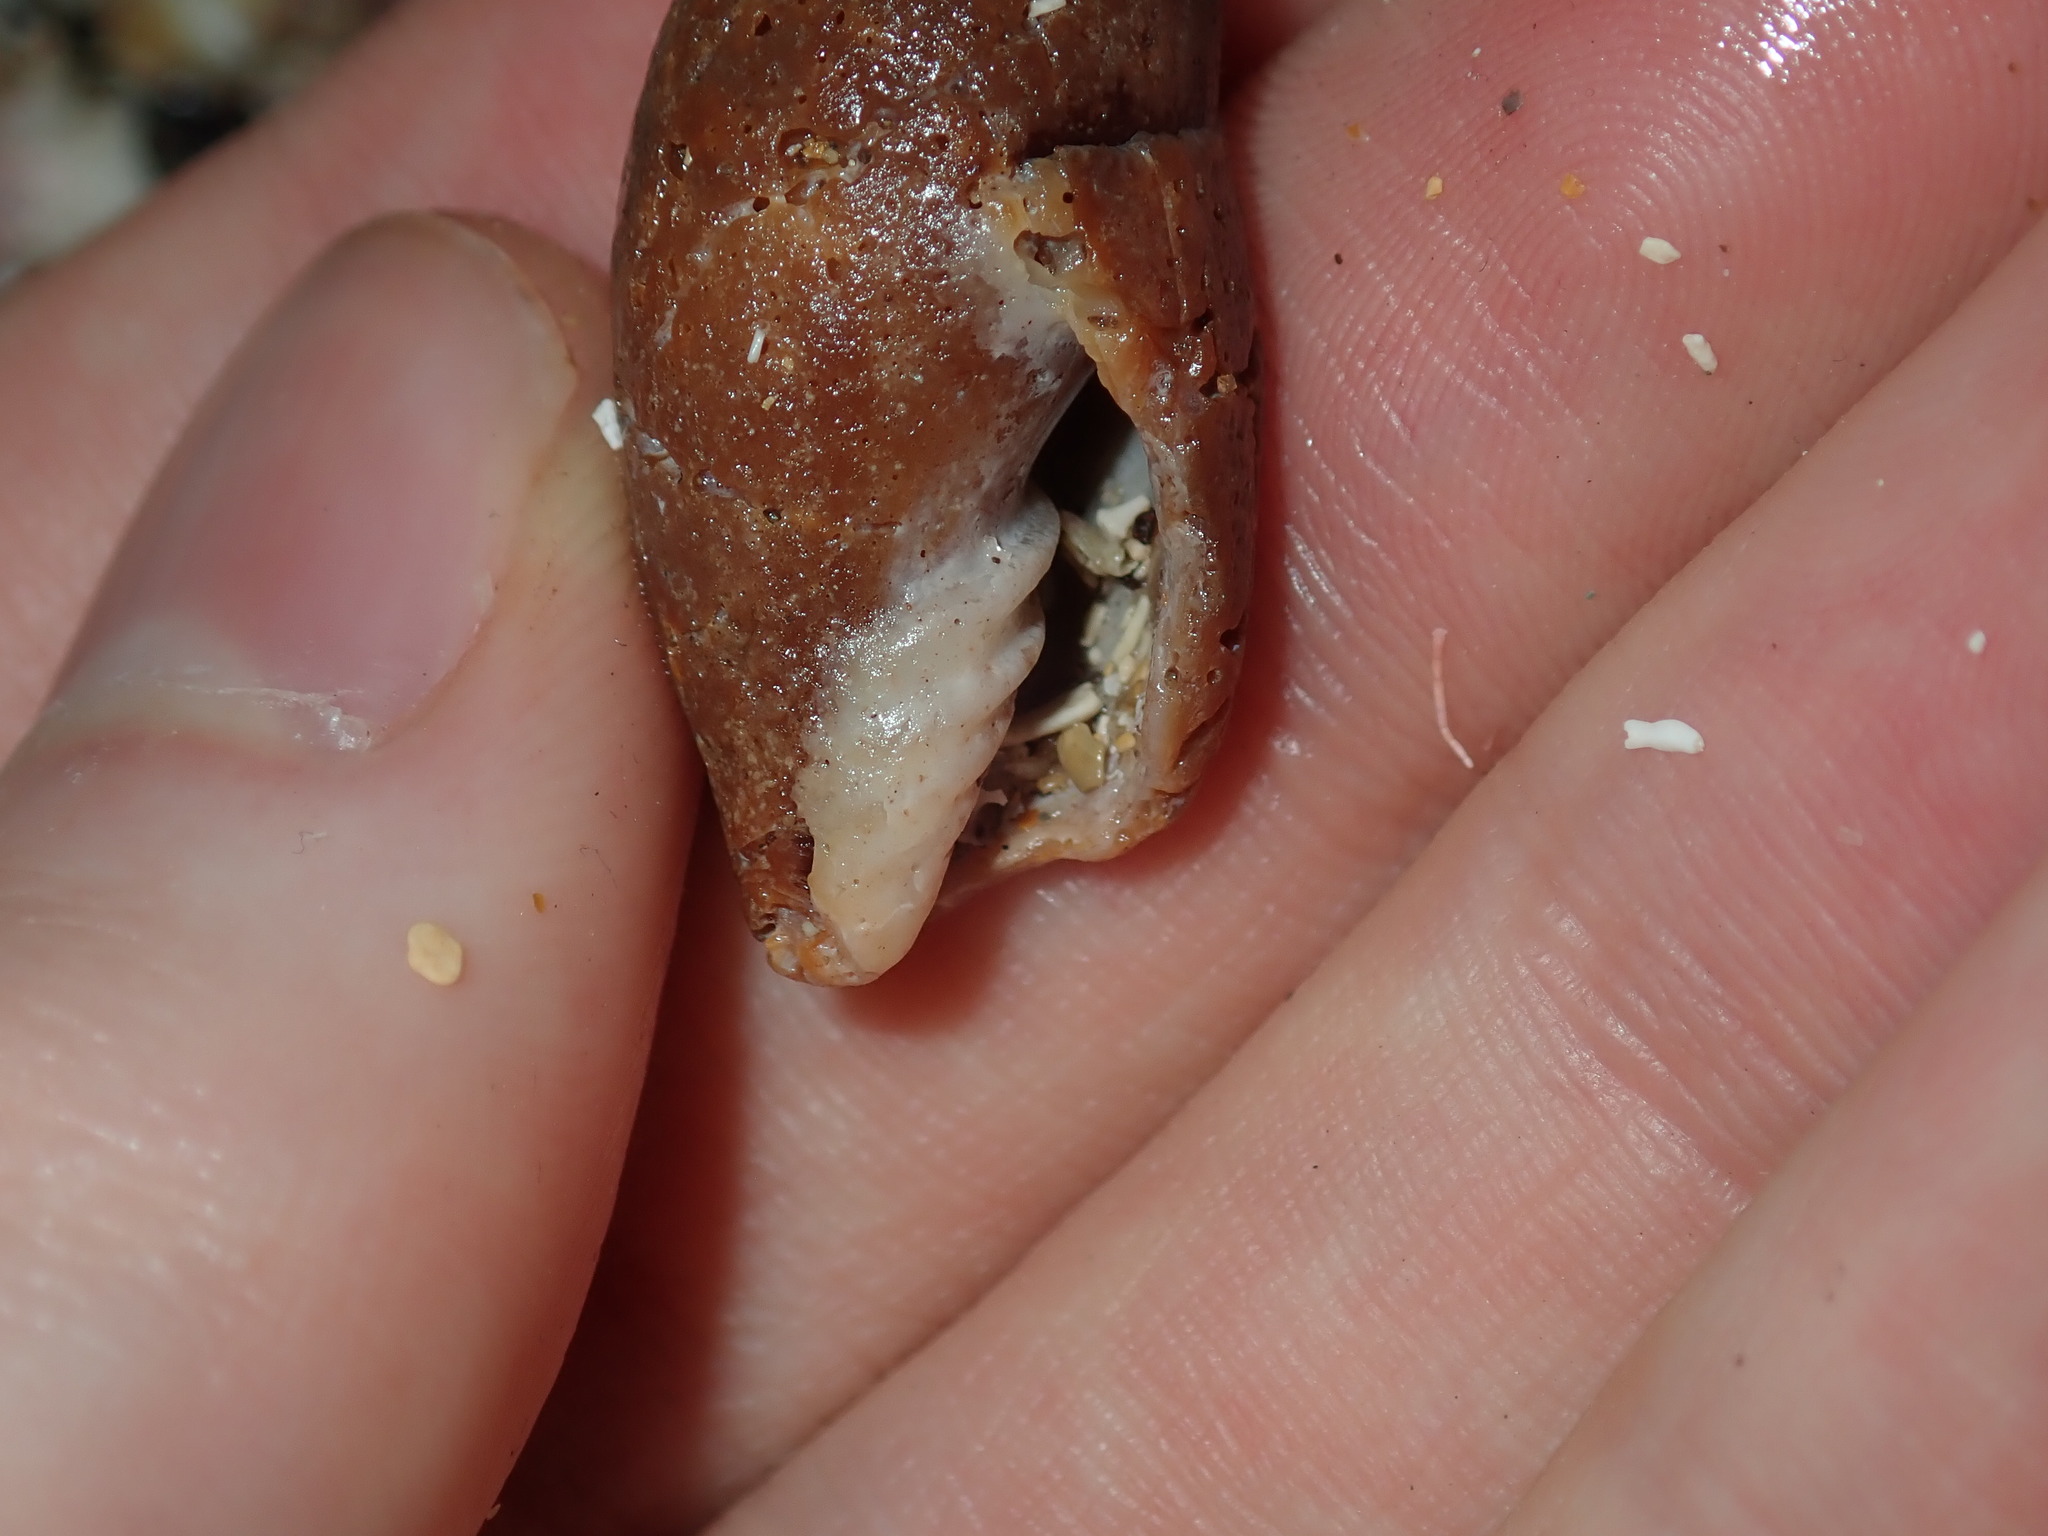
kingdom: Animalia
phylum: Mollusca
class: Gastropoda
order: Neogastropoda
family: Mitridae
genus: Isara
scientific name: Isara carbonaria
